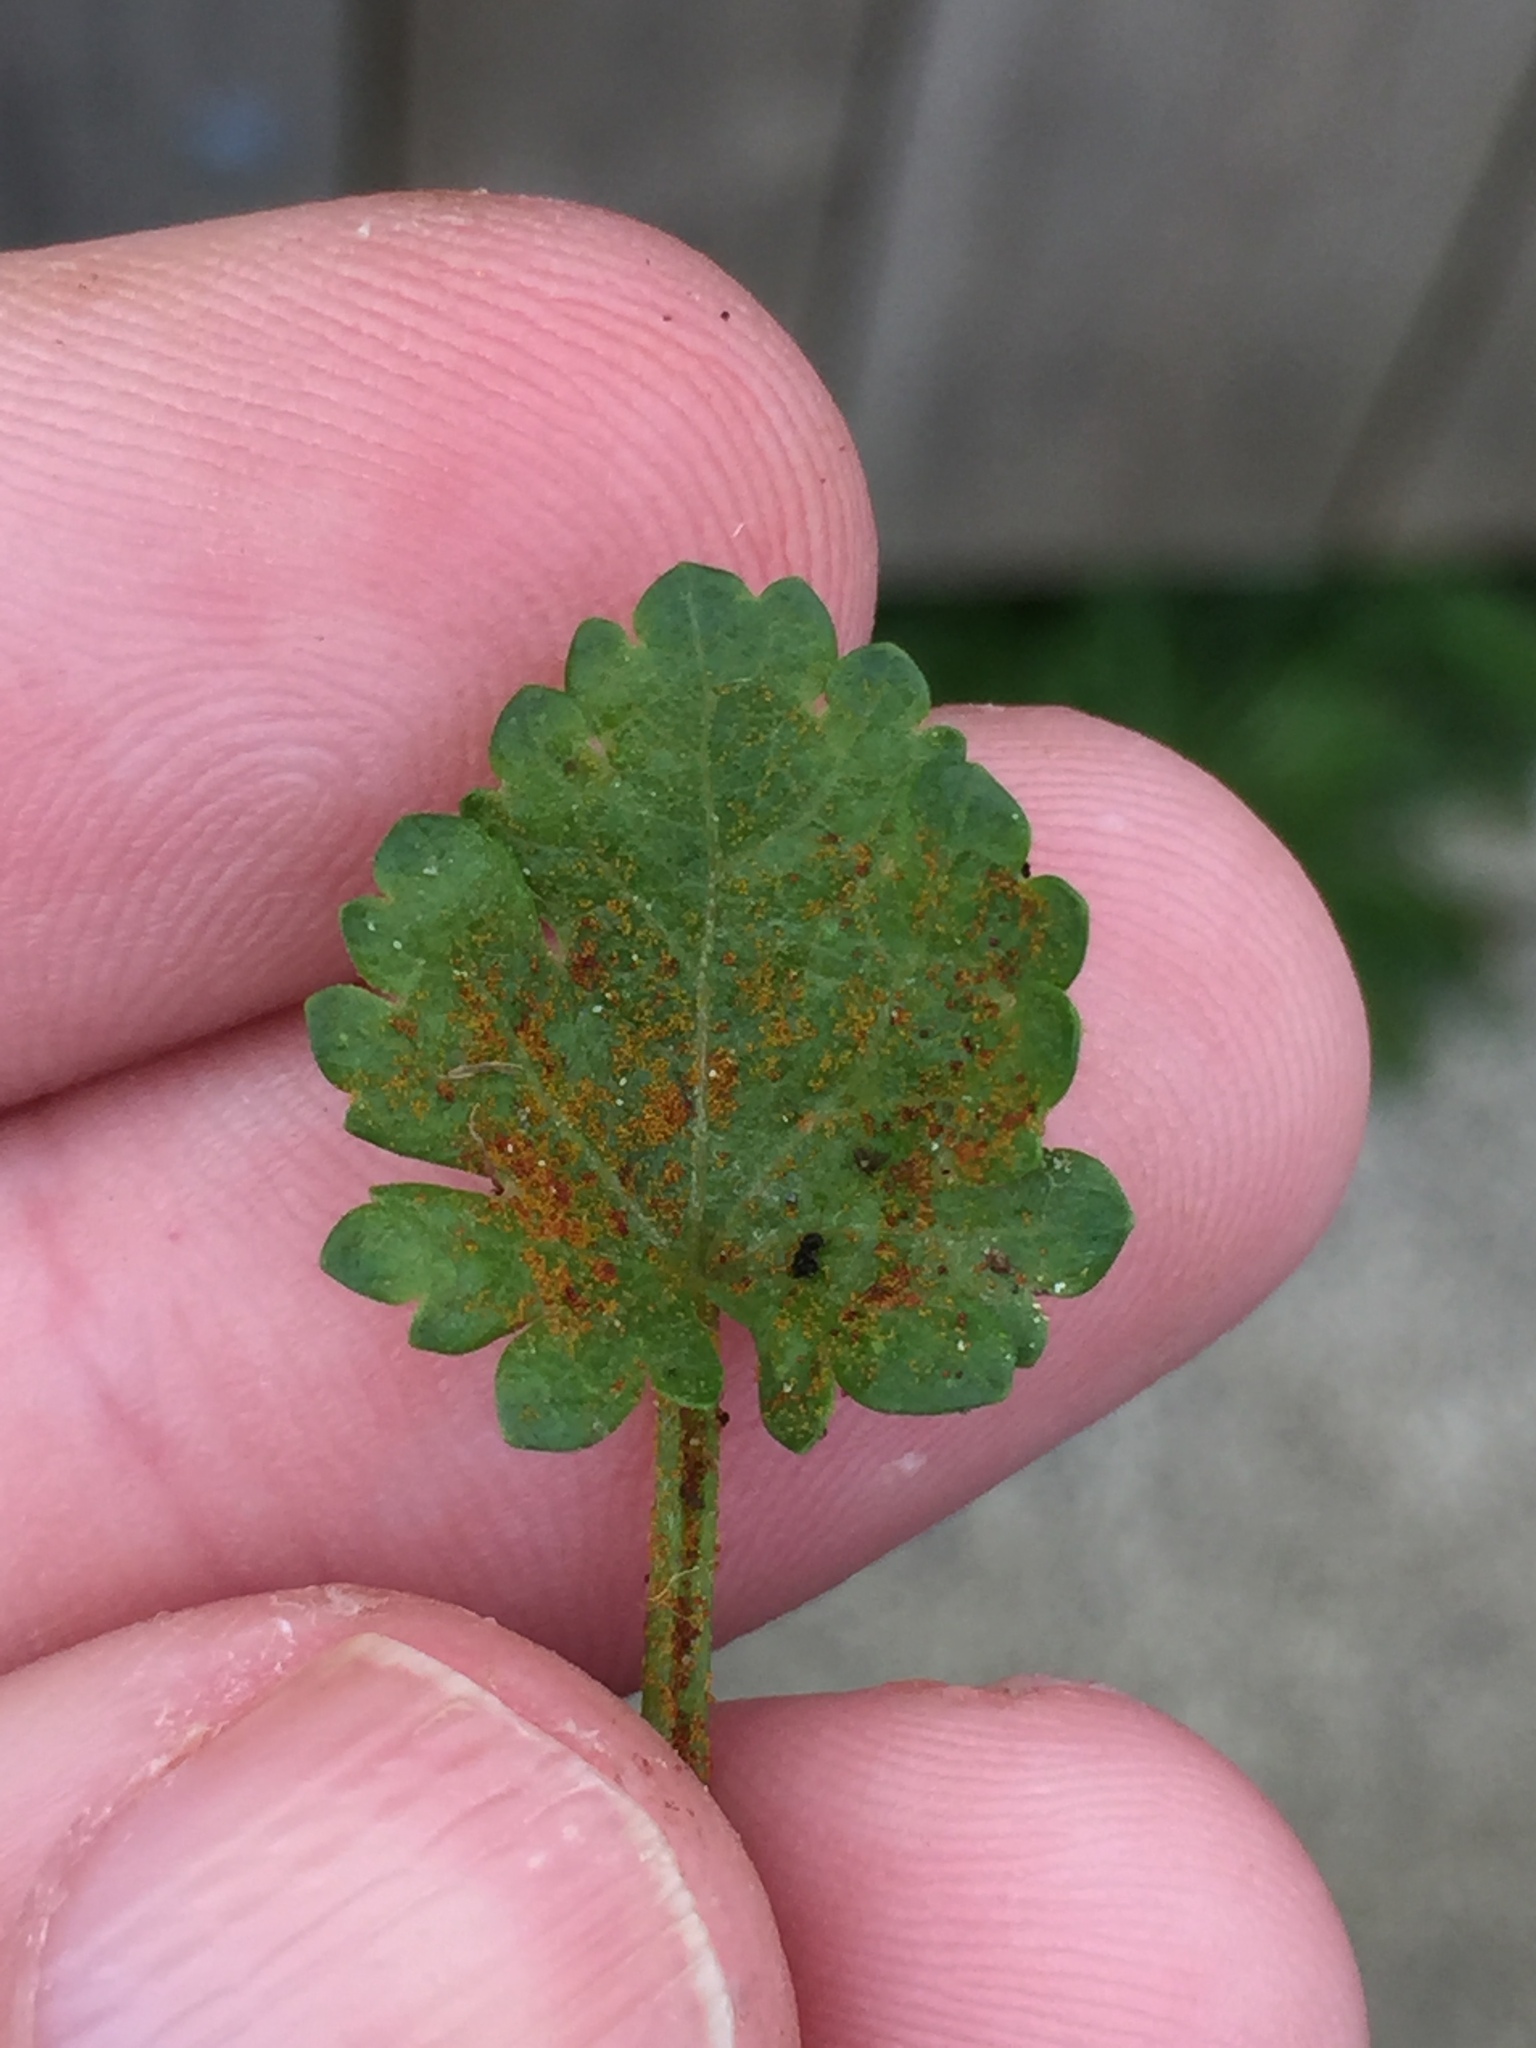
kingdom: Fungi
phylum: Chytridiomycota
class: Chytridiomycetes
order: Chytridiales
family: Synchytriaceae
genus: Synchytrium
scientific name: Synchytrium australe
